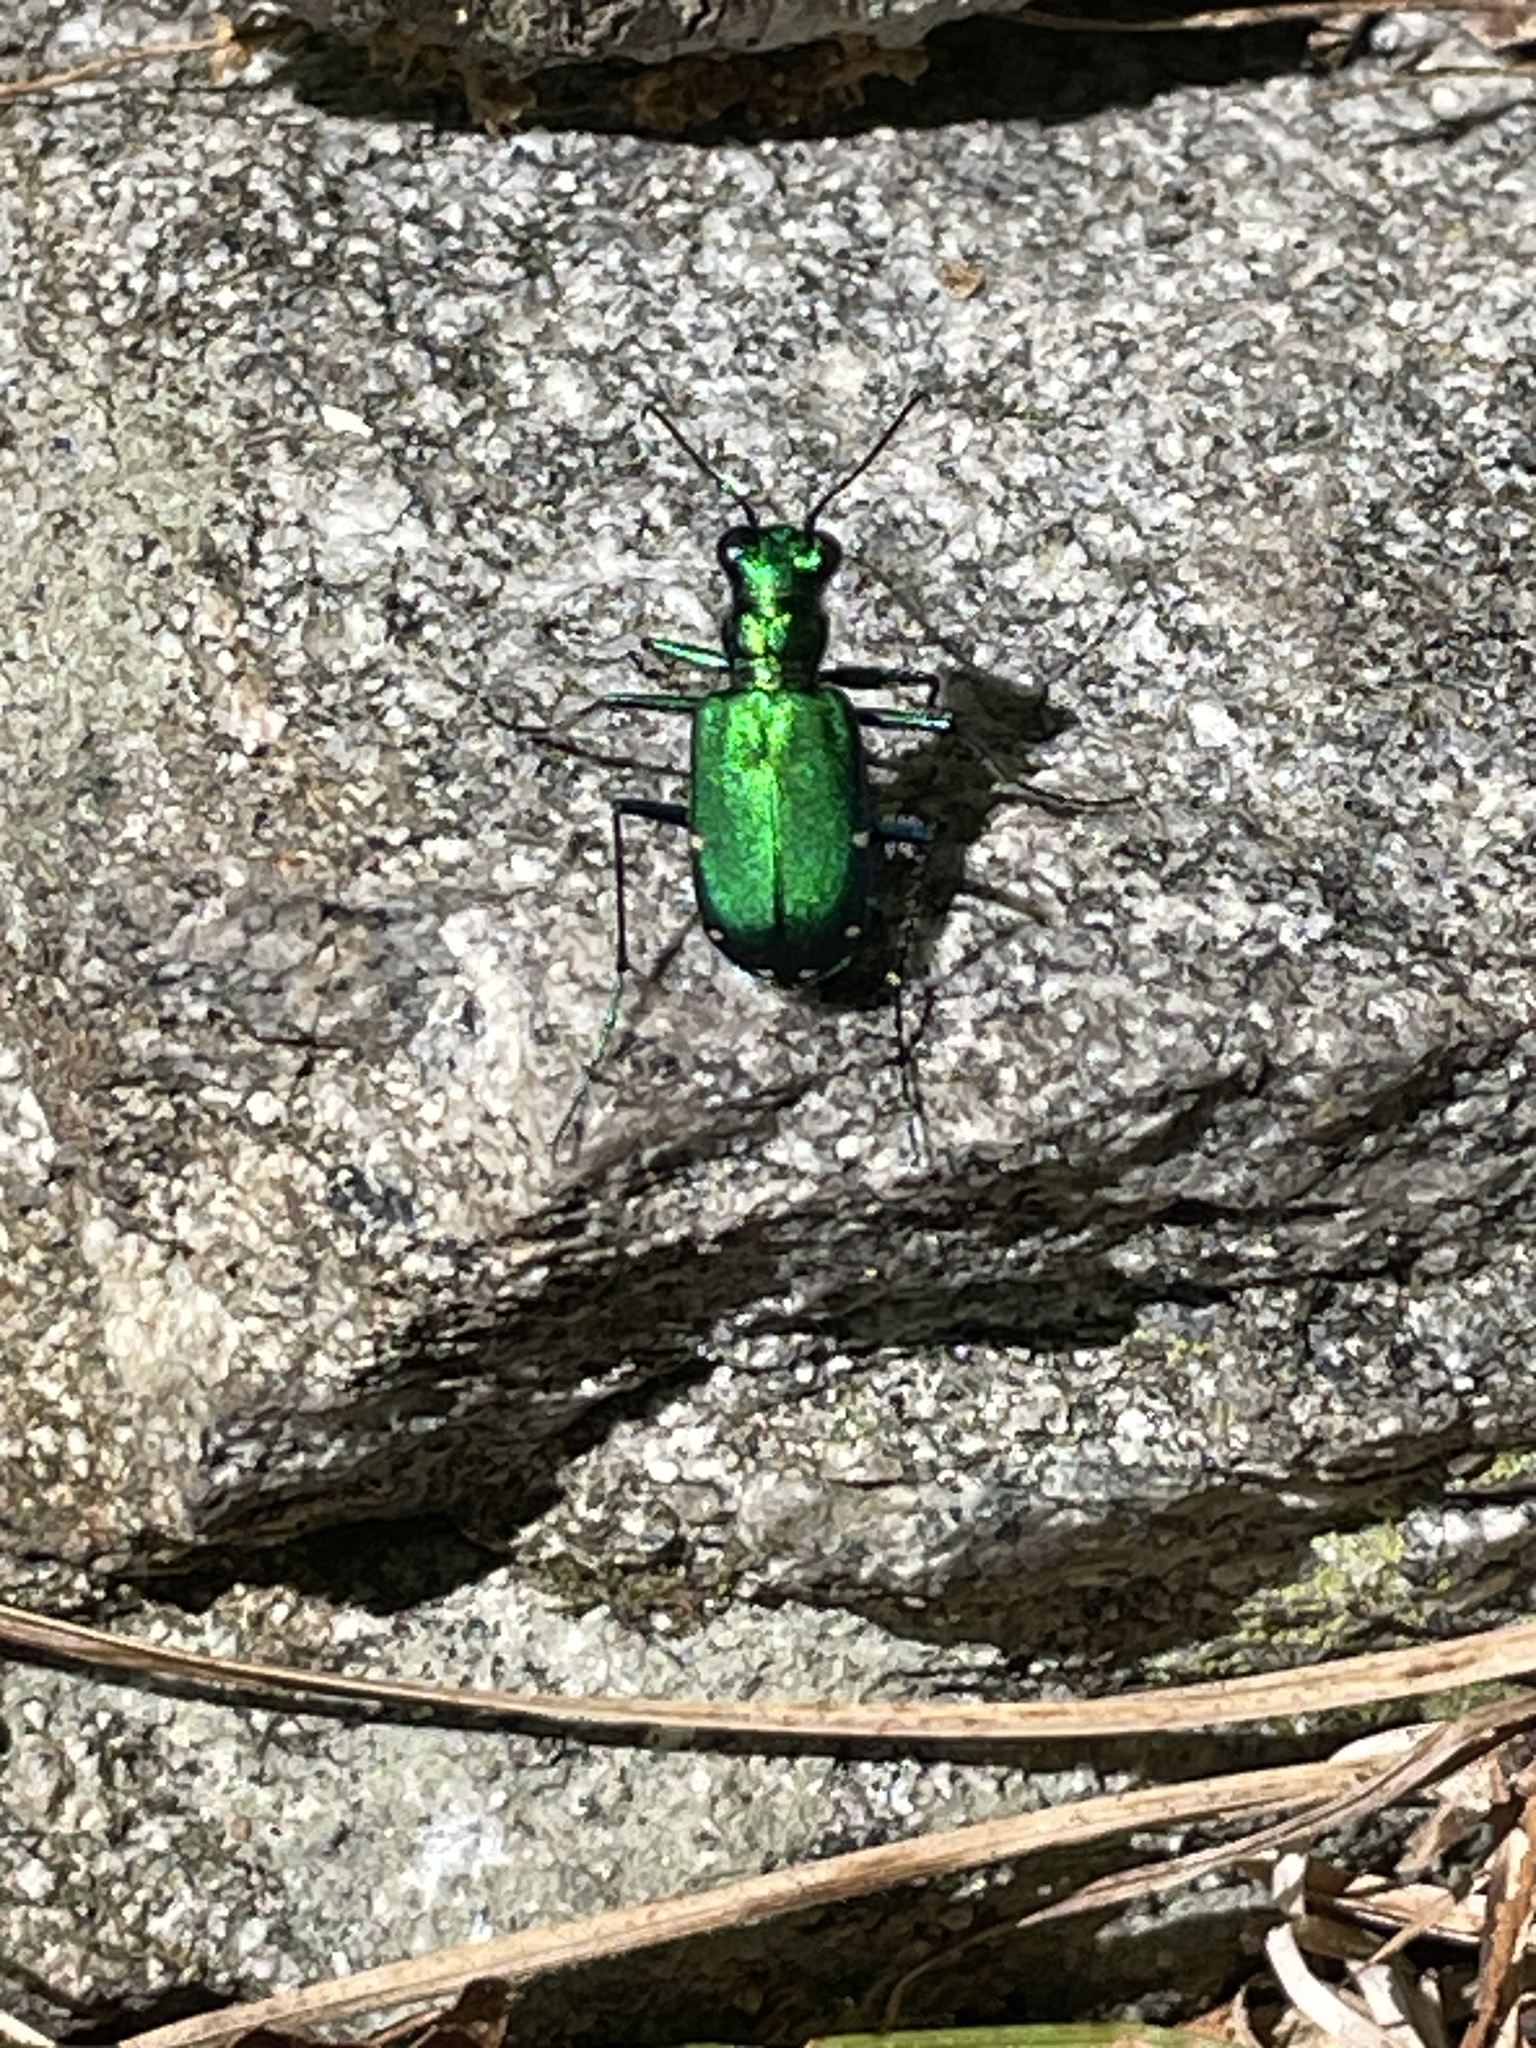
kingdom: Animalia
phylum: Arthropoda
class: Insecta
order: Coleoptera
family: Carabidae
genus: Cicindela
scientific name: Cicindela sexguttata
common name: Six-spotted tiger beetle
